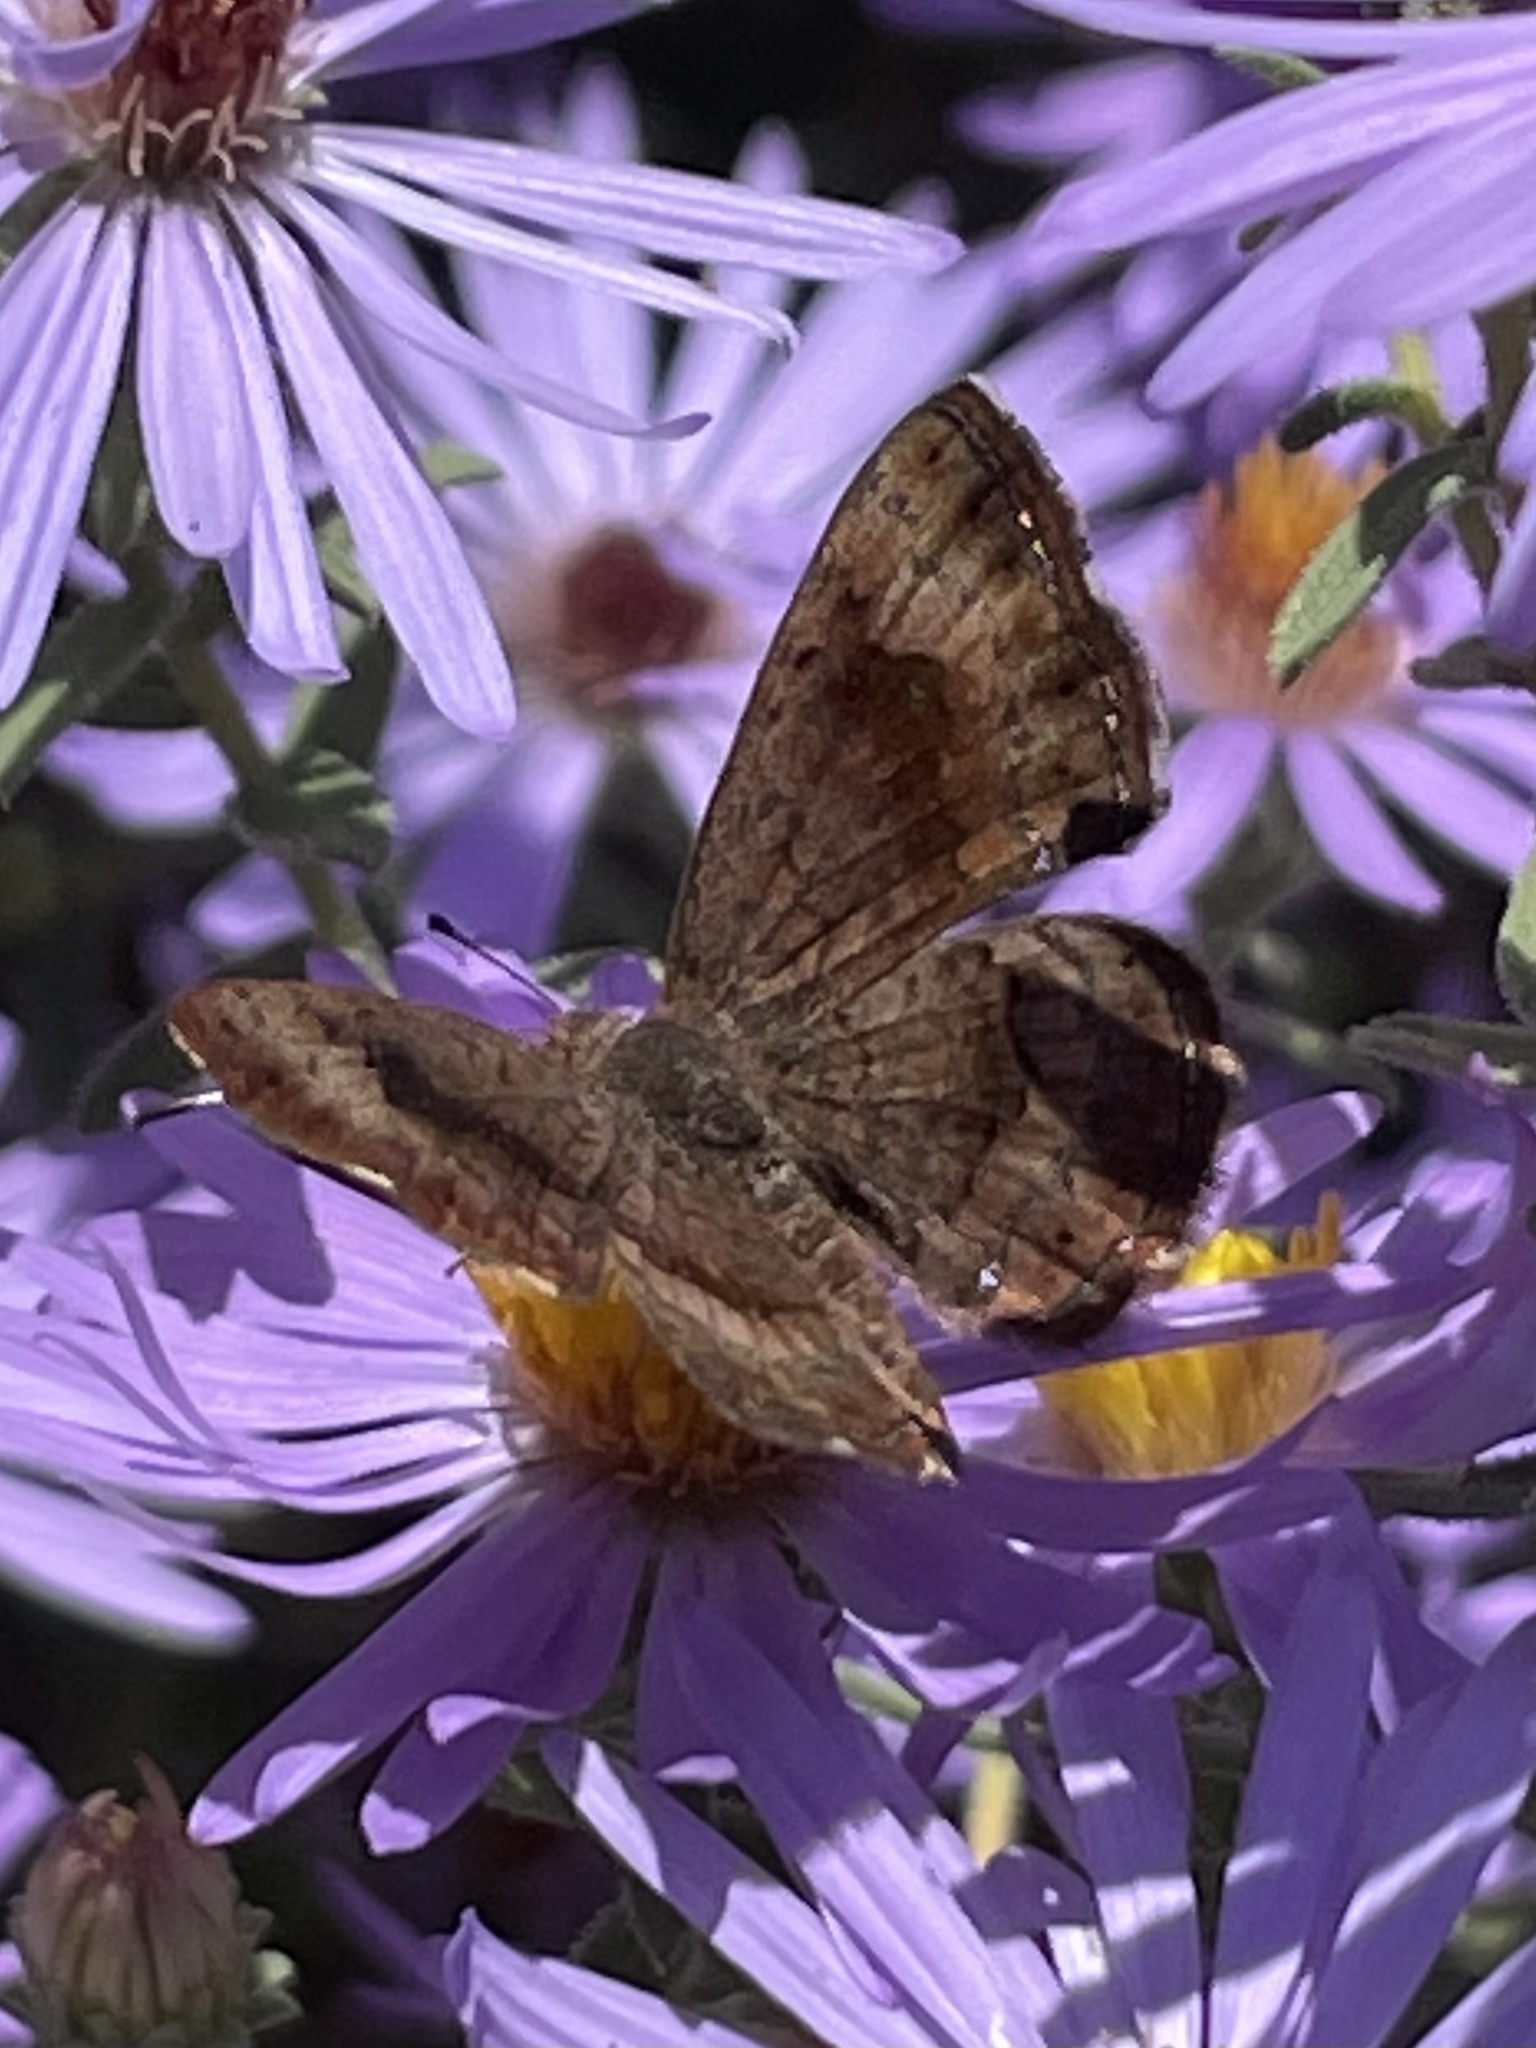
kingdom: Animalia
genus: Calephelis
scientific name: Calephelis nemesis
